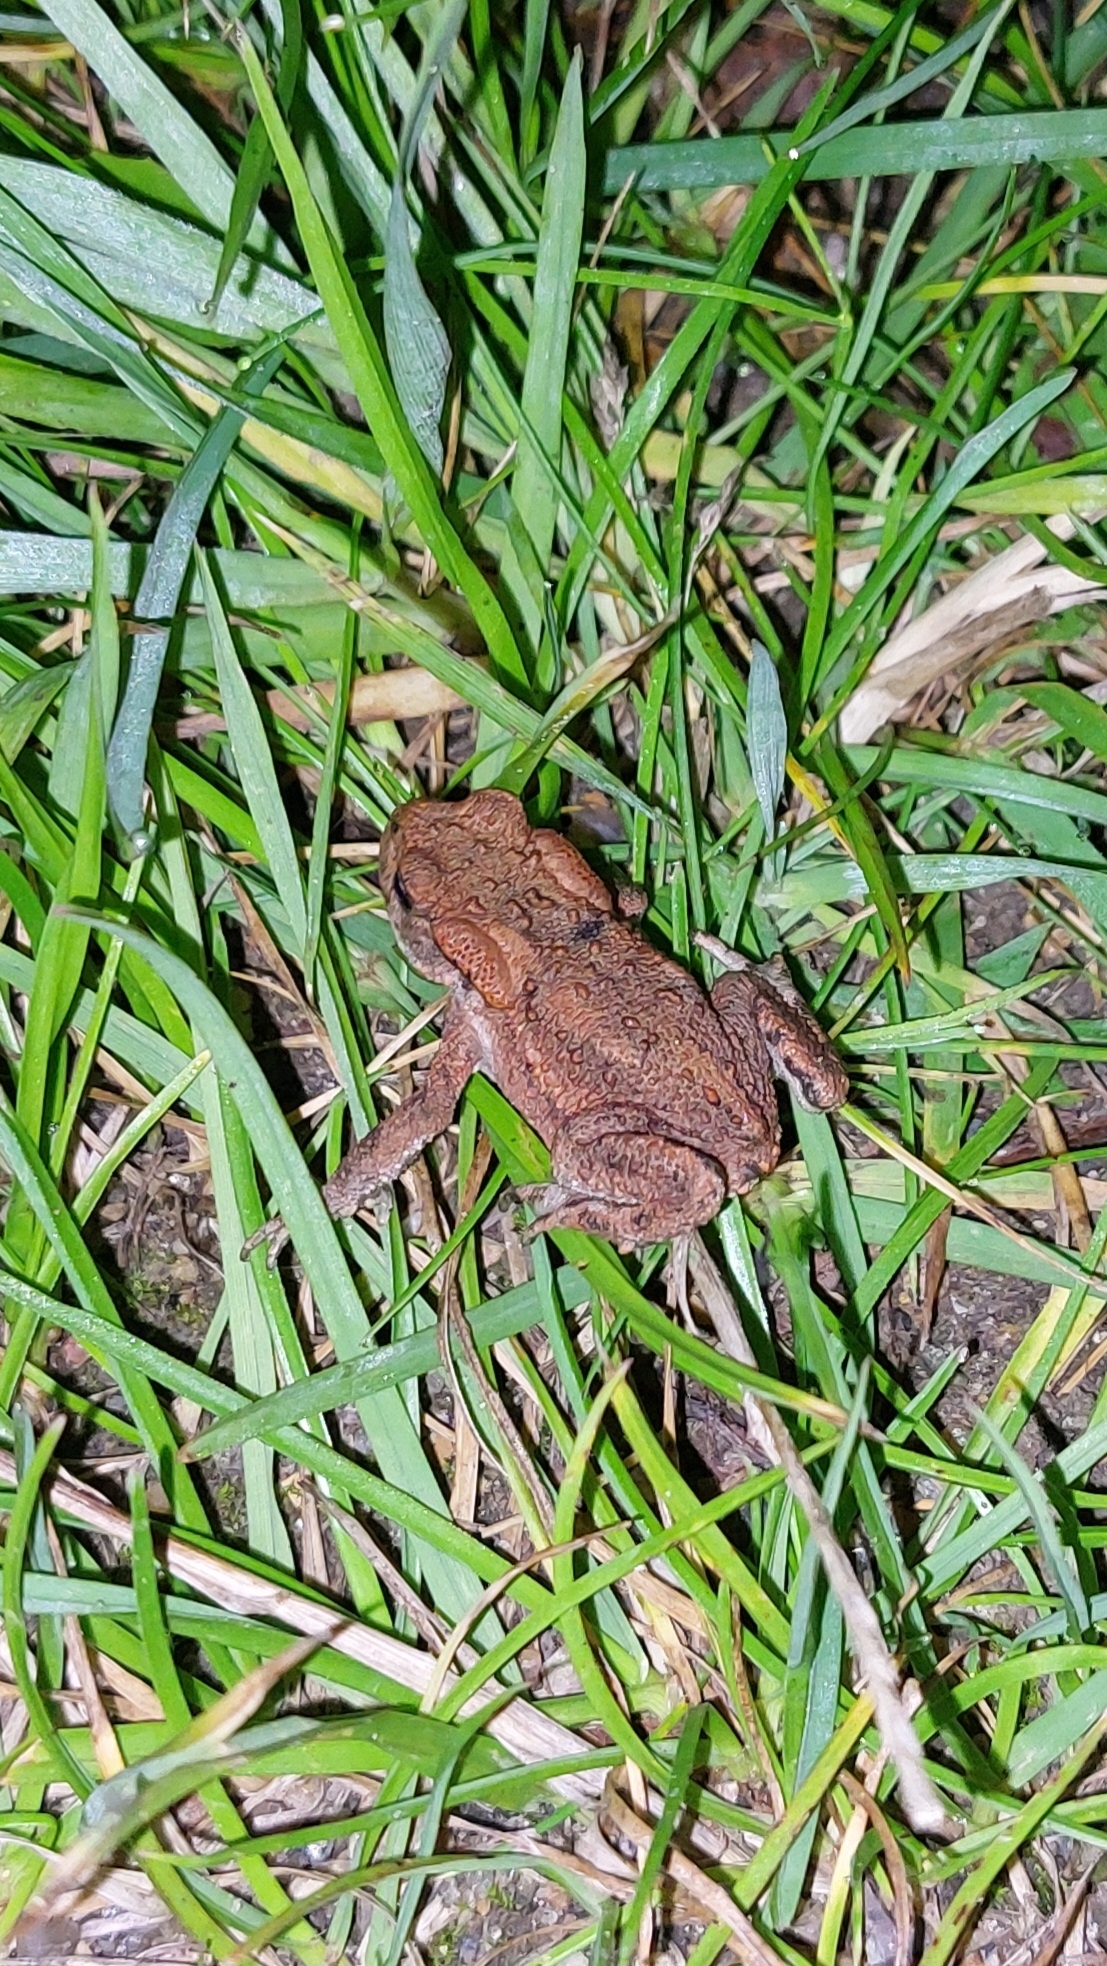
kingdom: Animalia
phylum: Chordata
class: Amphibia
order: Anura
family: Bufonidae
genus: Bufo
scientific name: Bufo bufo
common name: Common toad
